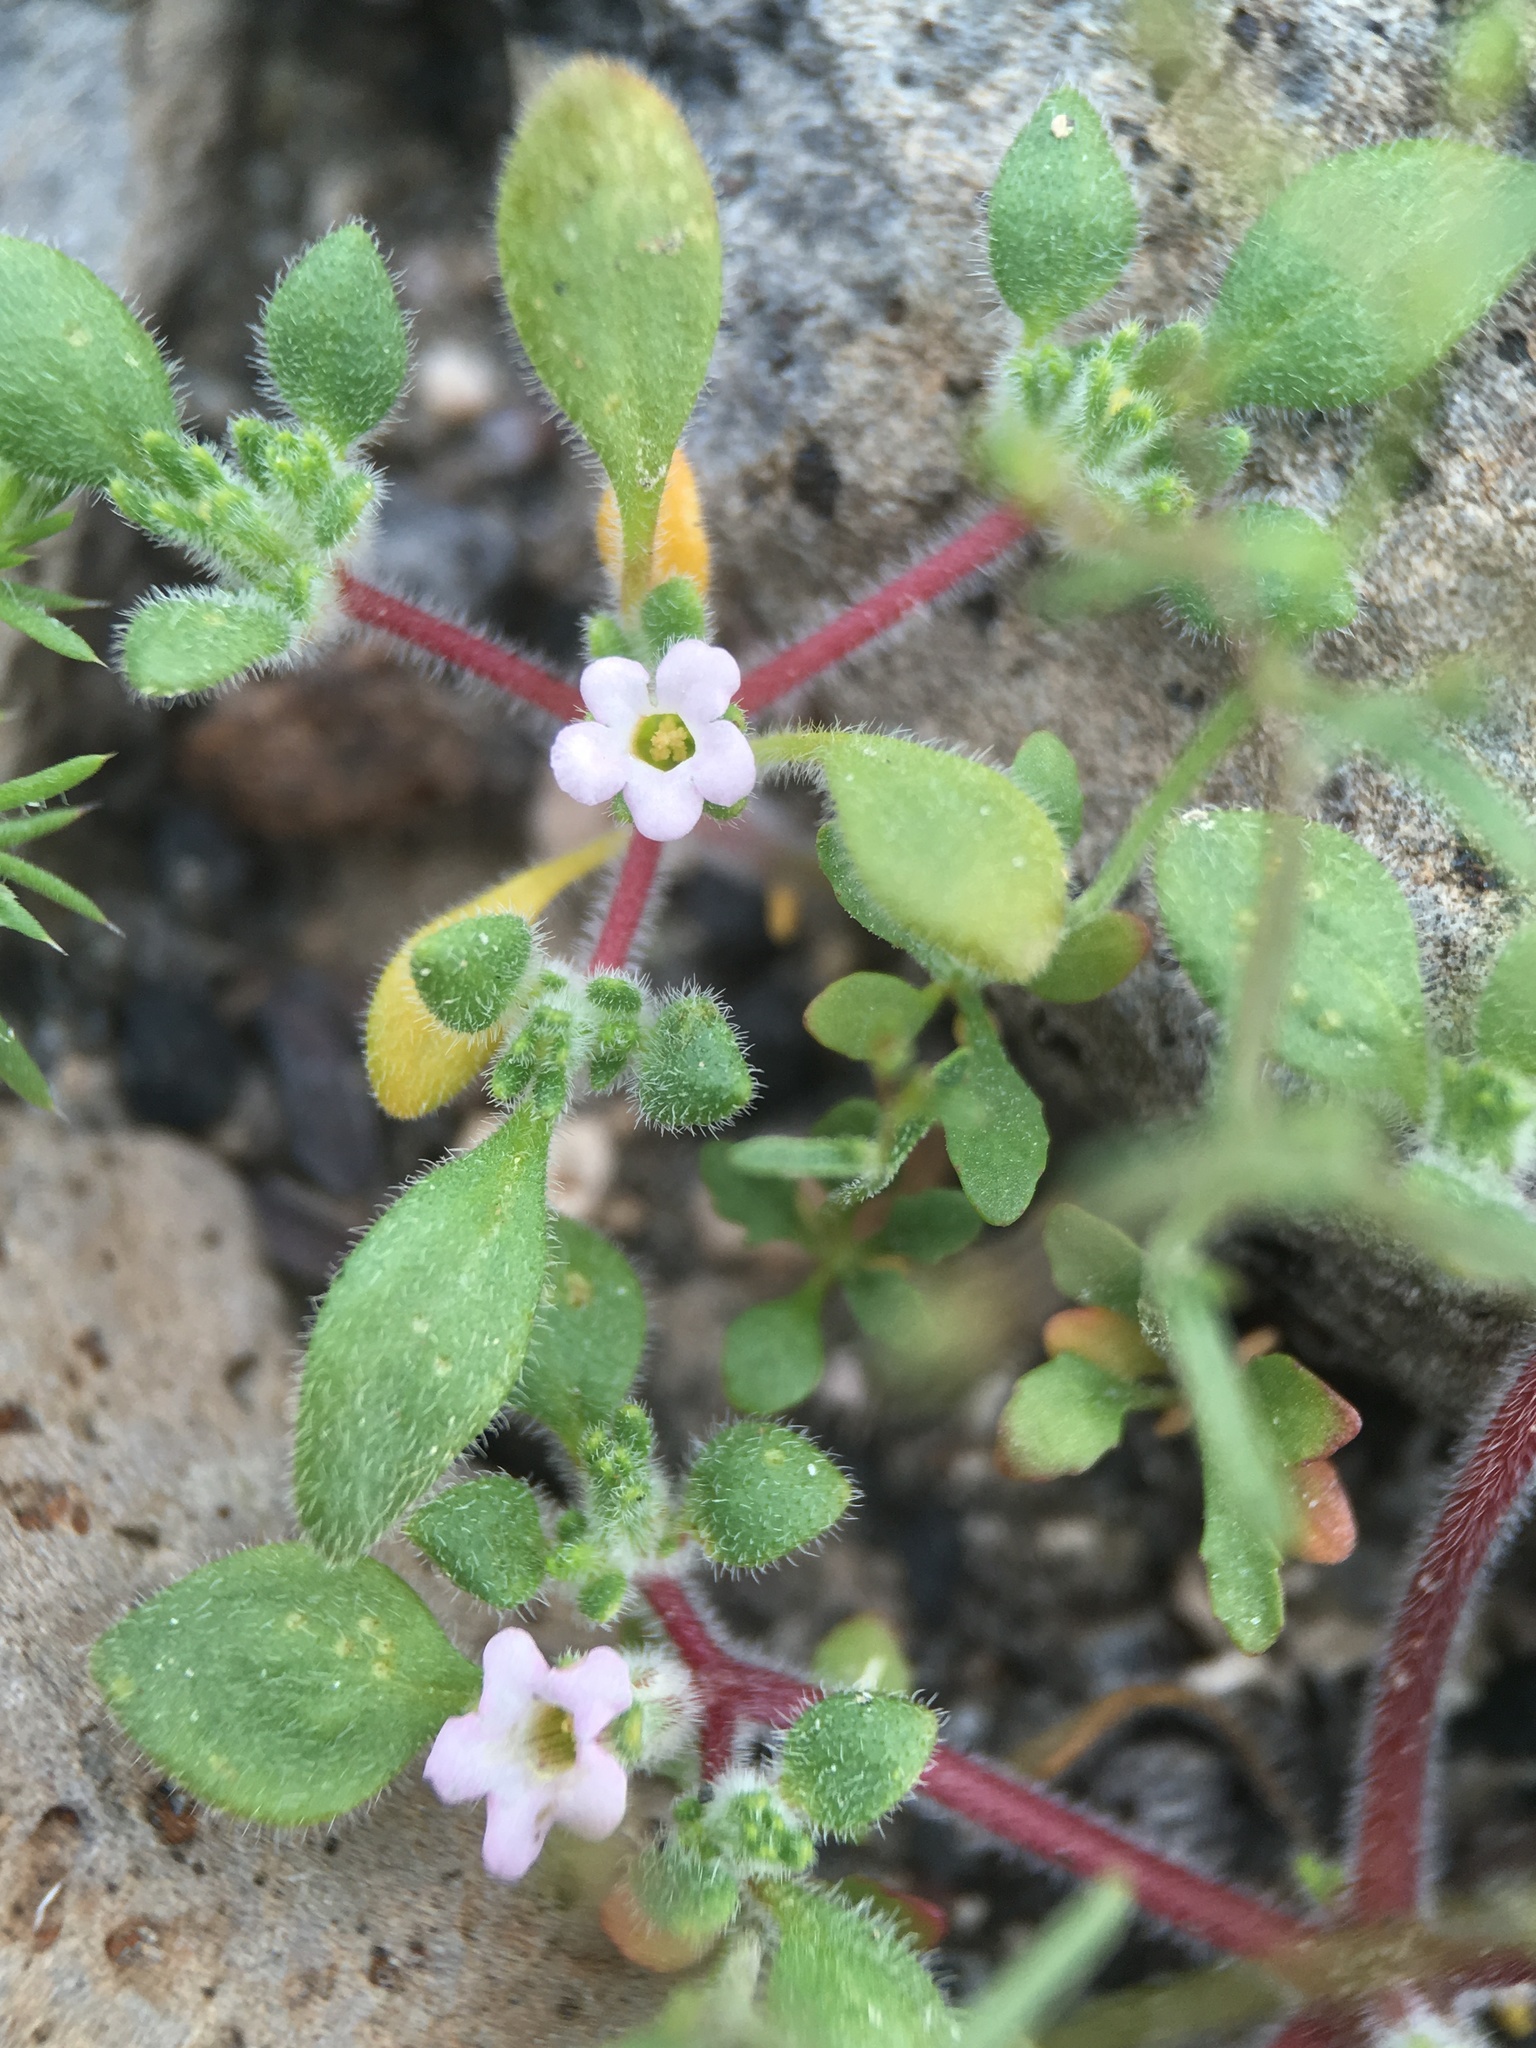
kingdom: Plantae
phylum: Tracheophyta
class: Magnoliopsida
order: Boraginales
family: Namaceae
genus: Nama
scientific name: Nama pusilla
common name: Eggleaf nama
